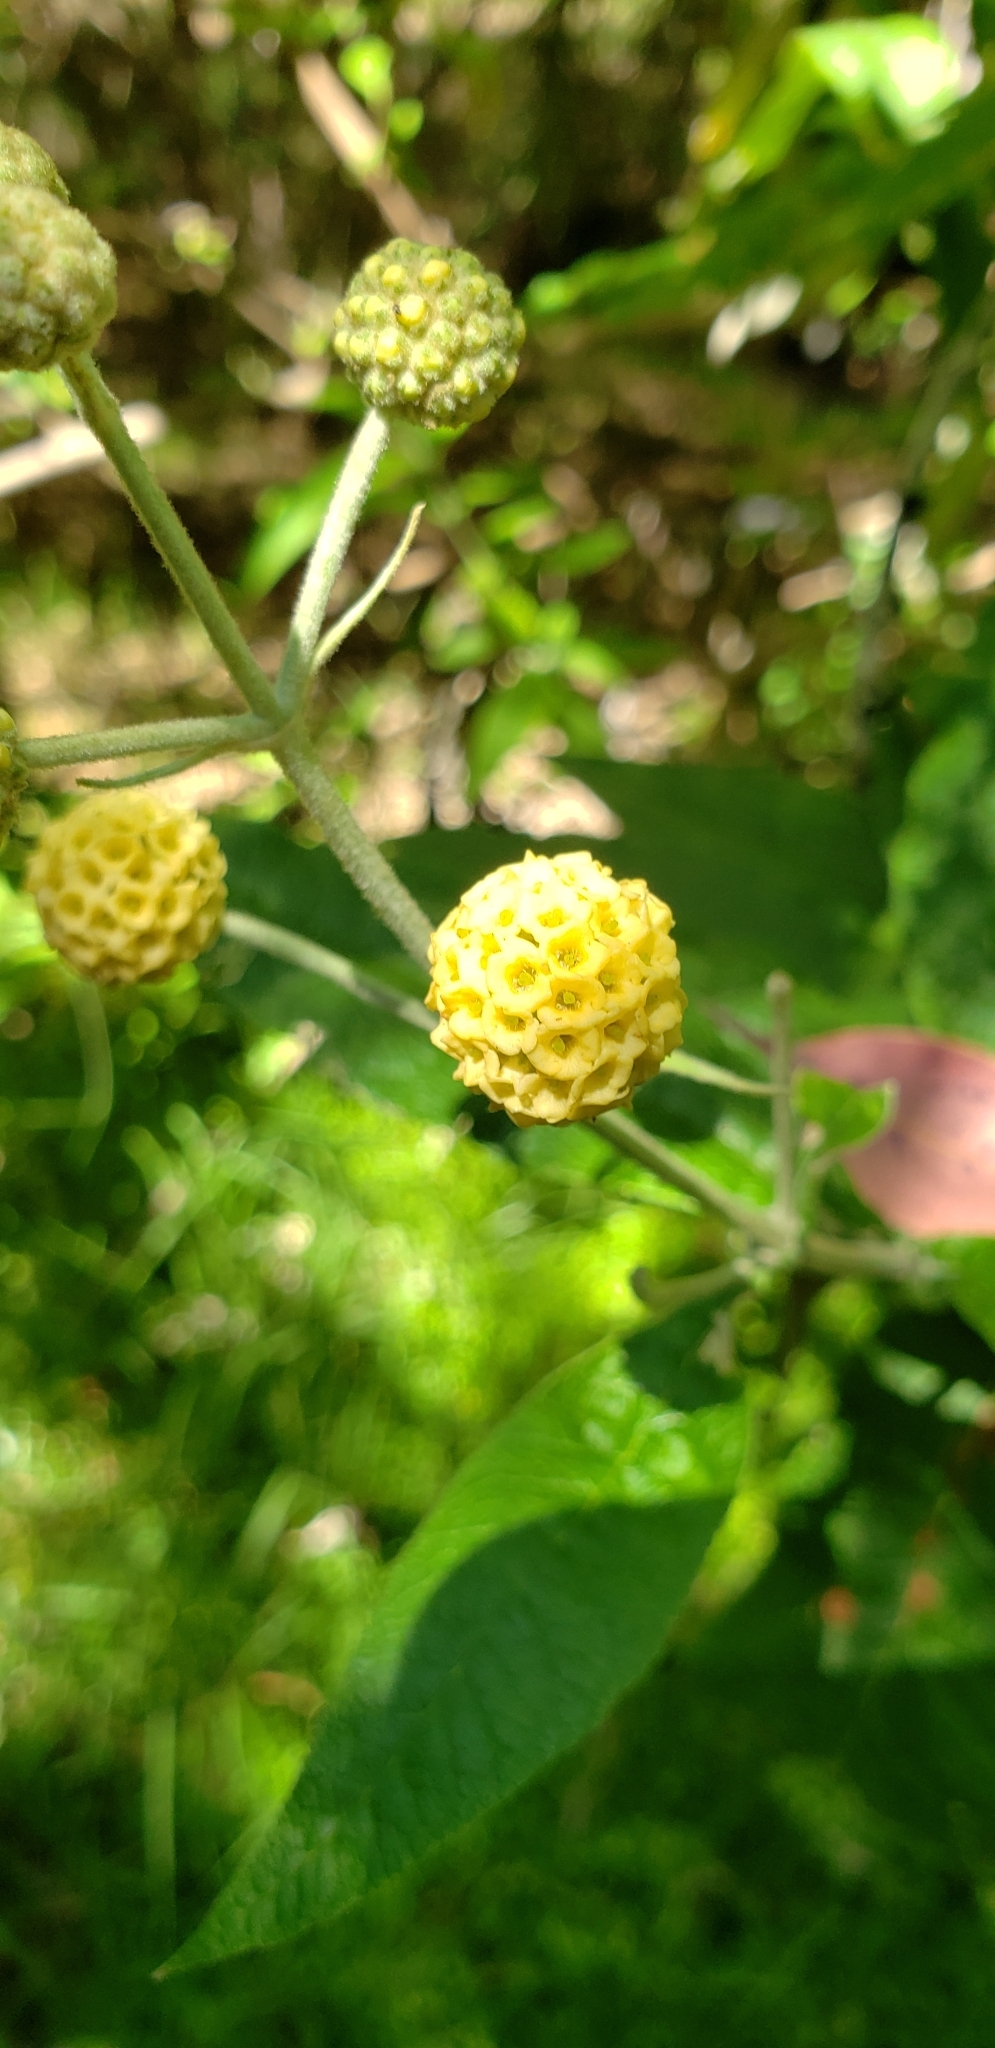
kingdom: Plantae
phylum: Tracheophyta
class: Magnoliopsida
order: Lamiales
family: Scrophulariaceae
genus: Buddleja
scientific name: Buddleja globosa
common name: Orange-ball-tree
